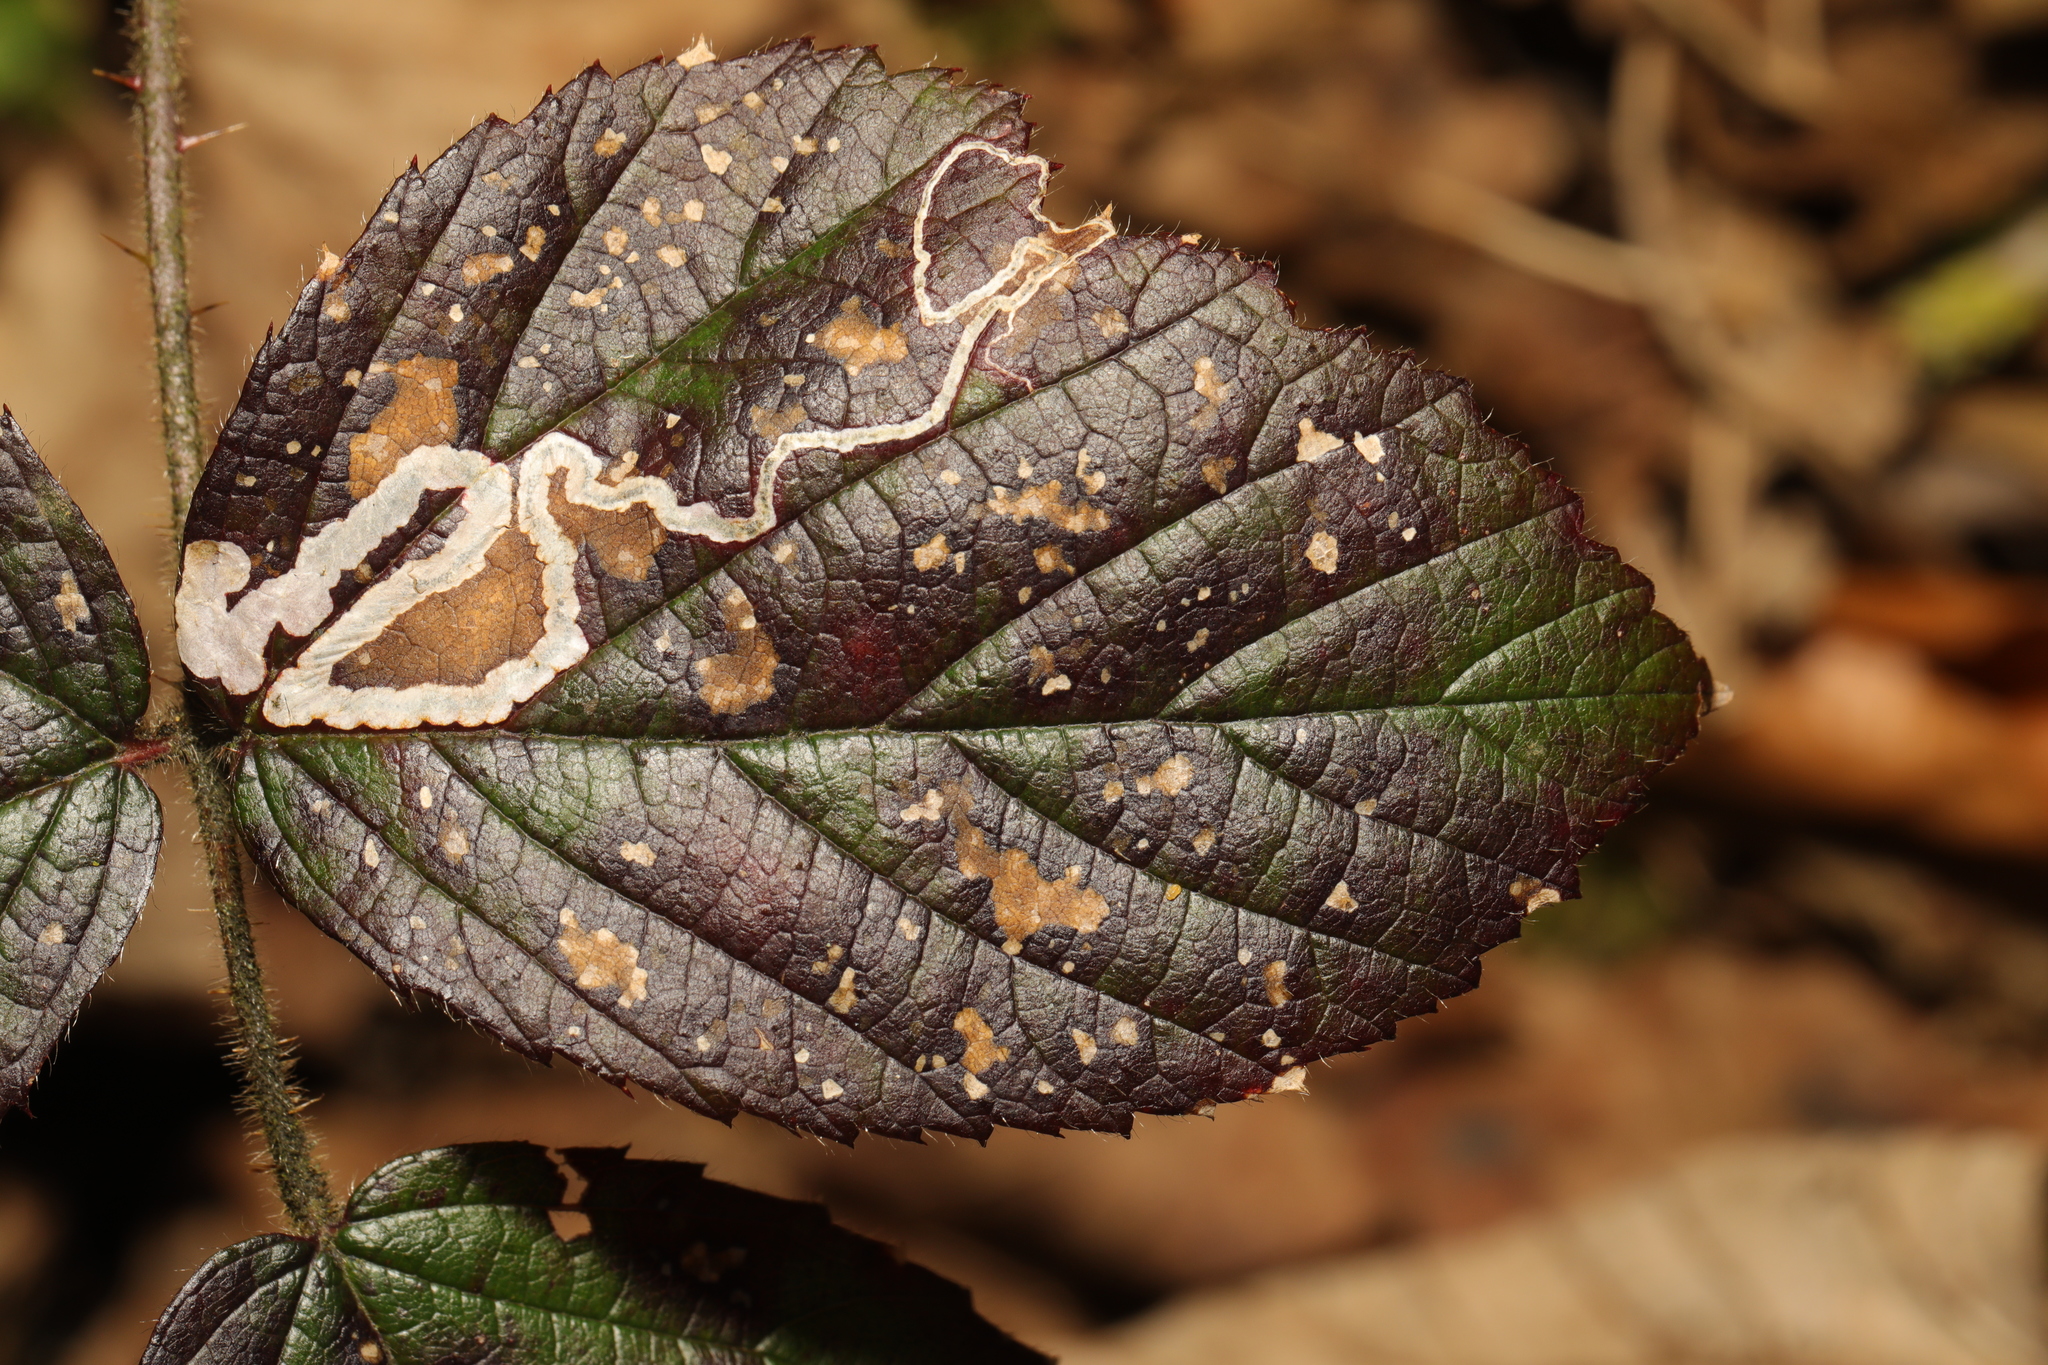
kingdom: Animalia
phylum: Arthropoda
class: Insecta
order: Lepidoptera
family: Nepticulidae
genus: Stigmella
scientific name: Stigmella aurella
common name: Golden pigmy
